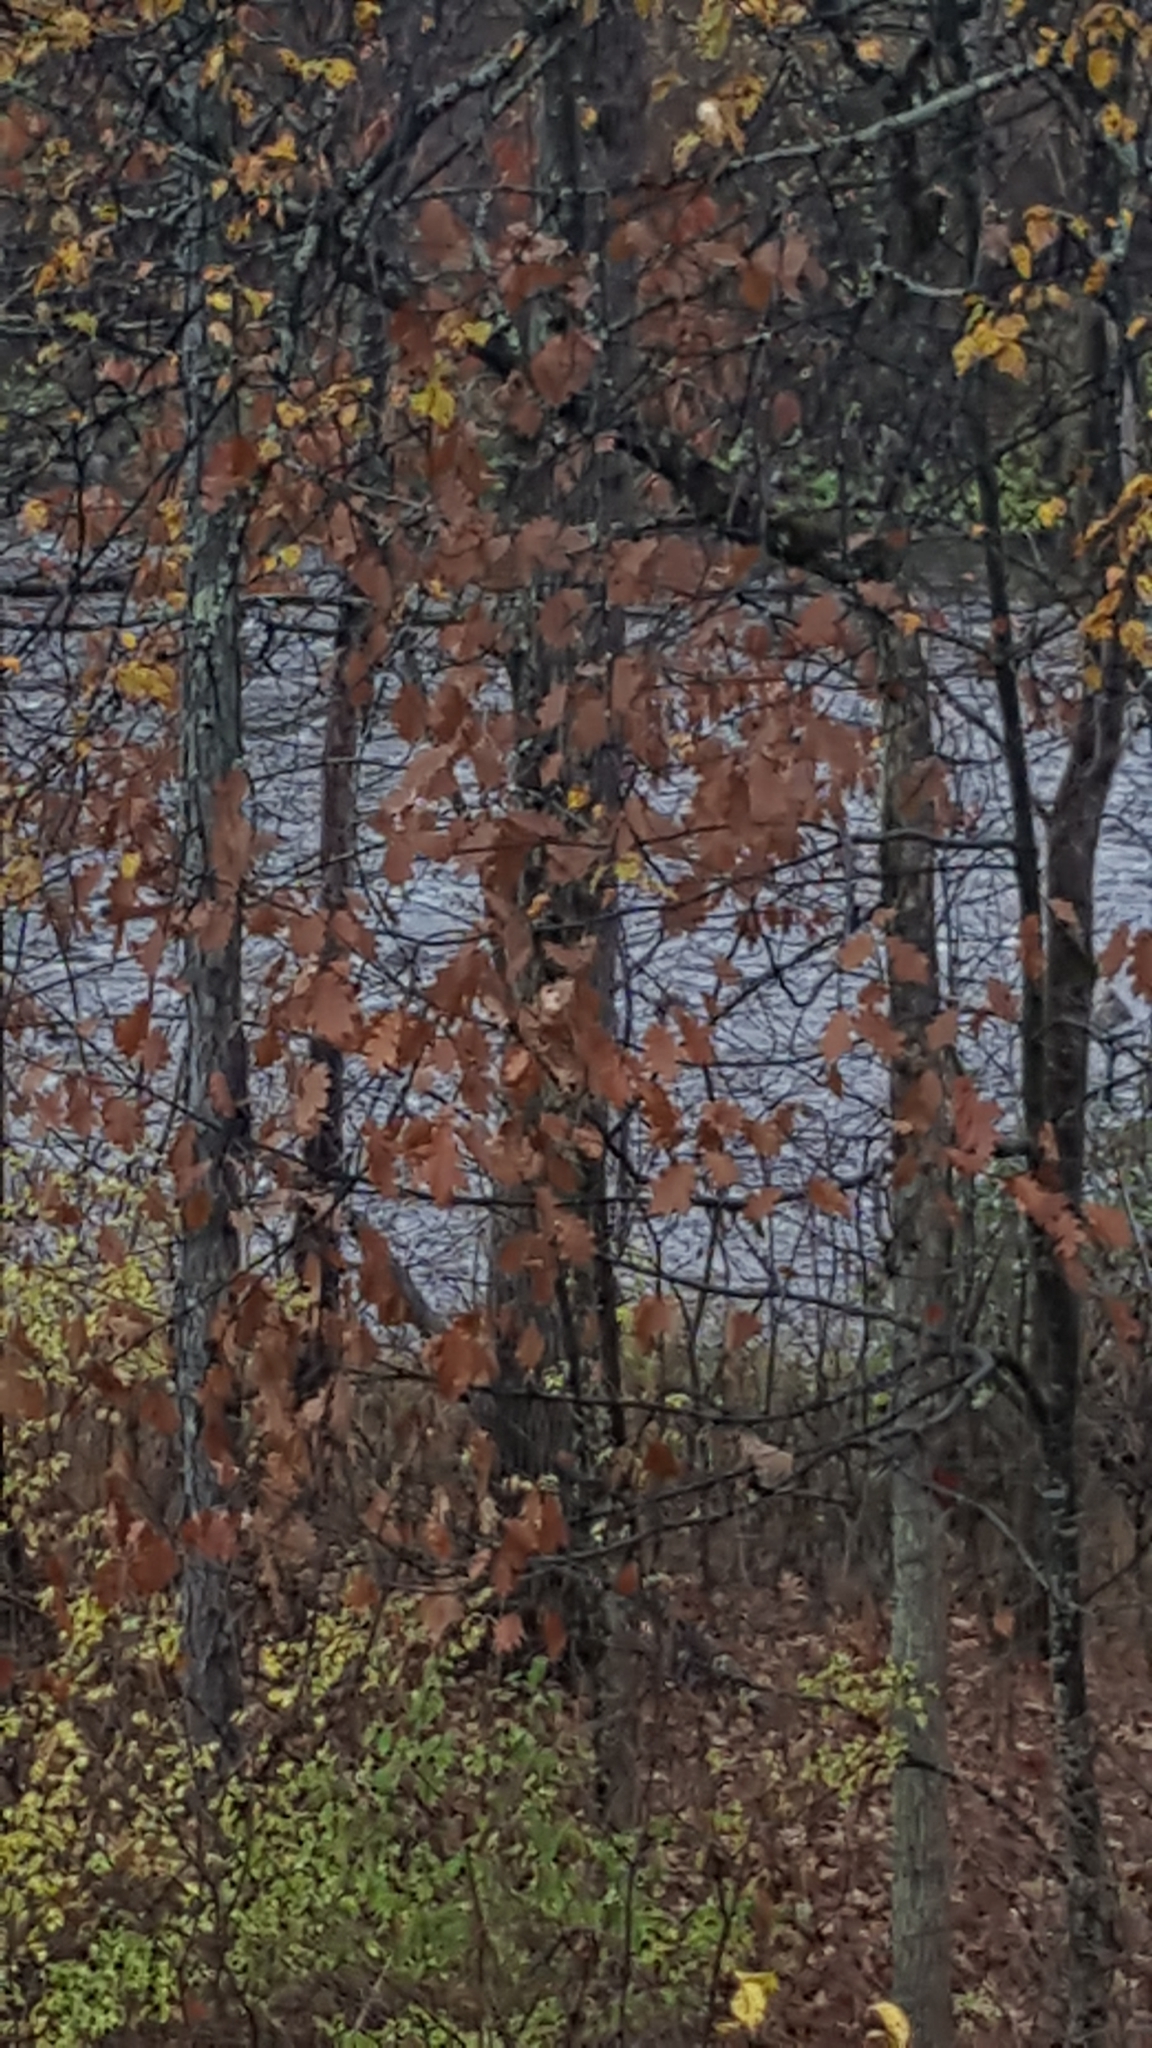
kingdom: Plantae
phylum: Tracheophyta
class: Magnoliopsida
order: Fagales
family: Fagaceae
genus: Quercus
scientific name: Quercus rubra
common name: Red oak
